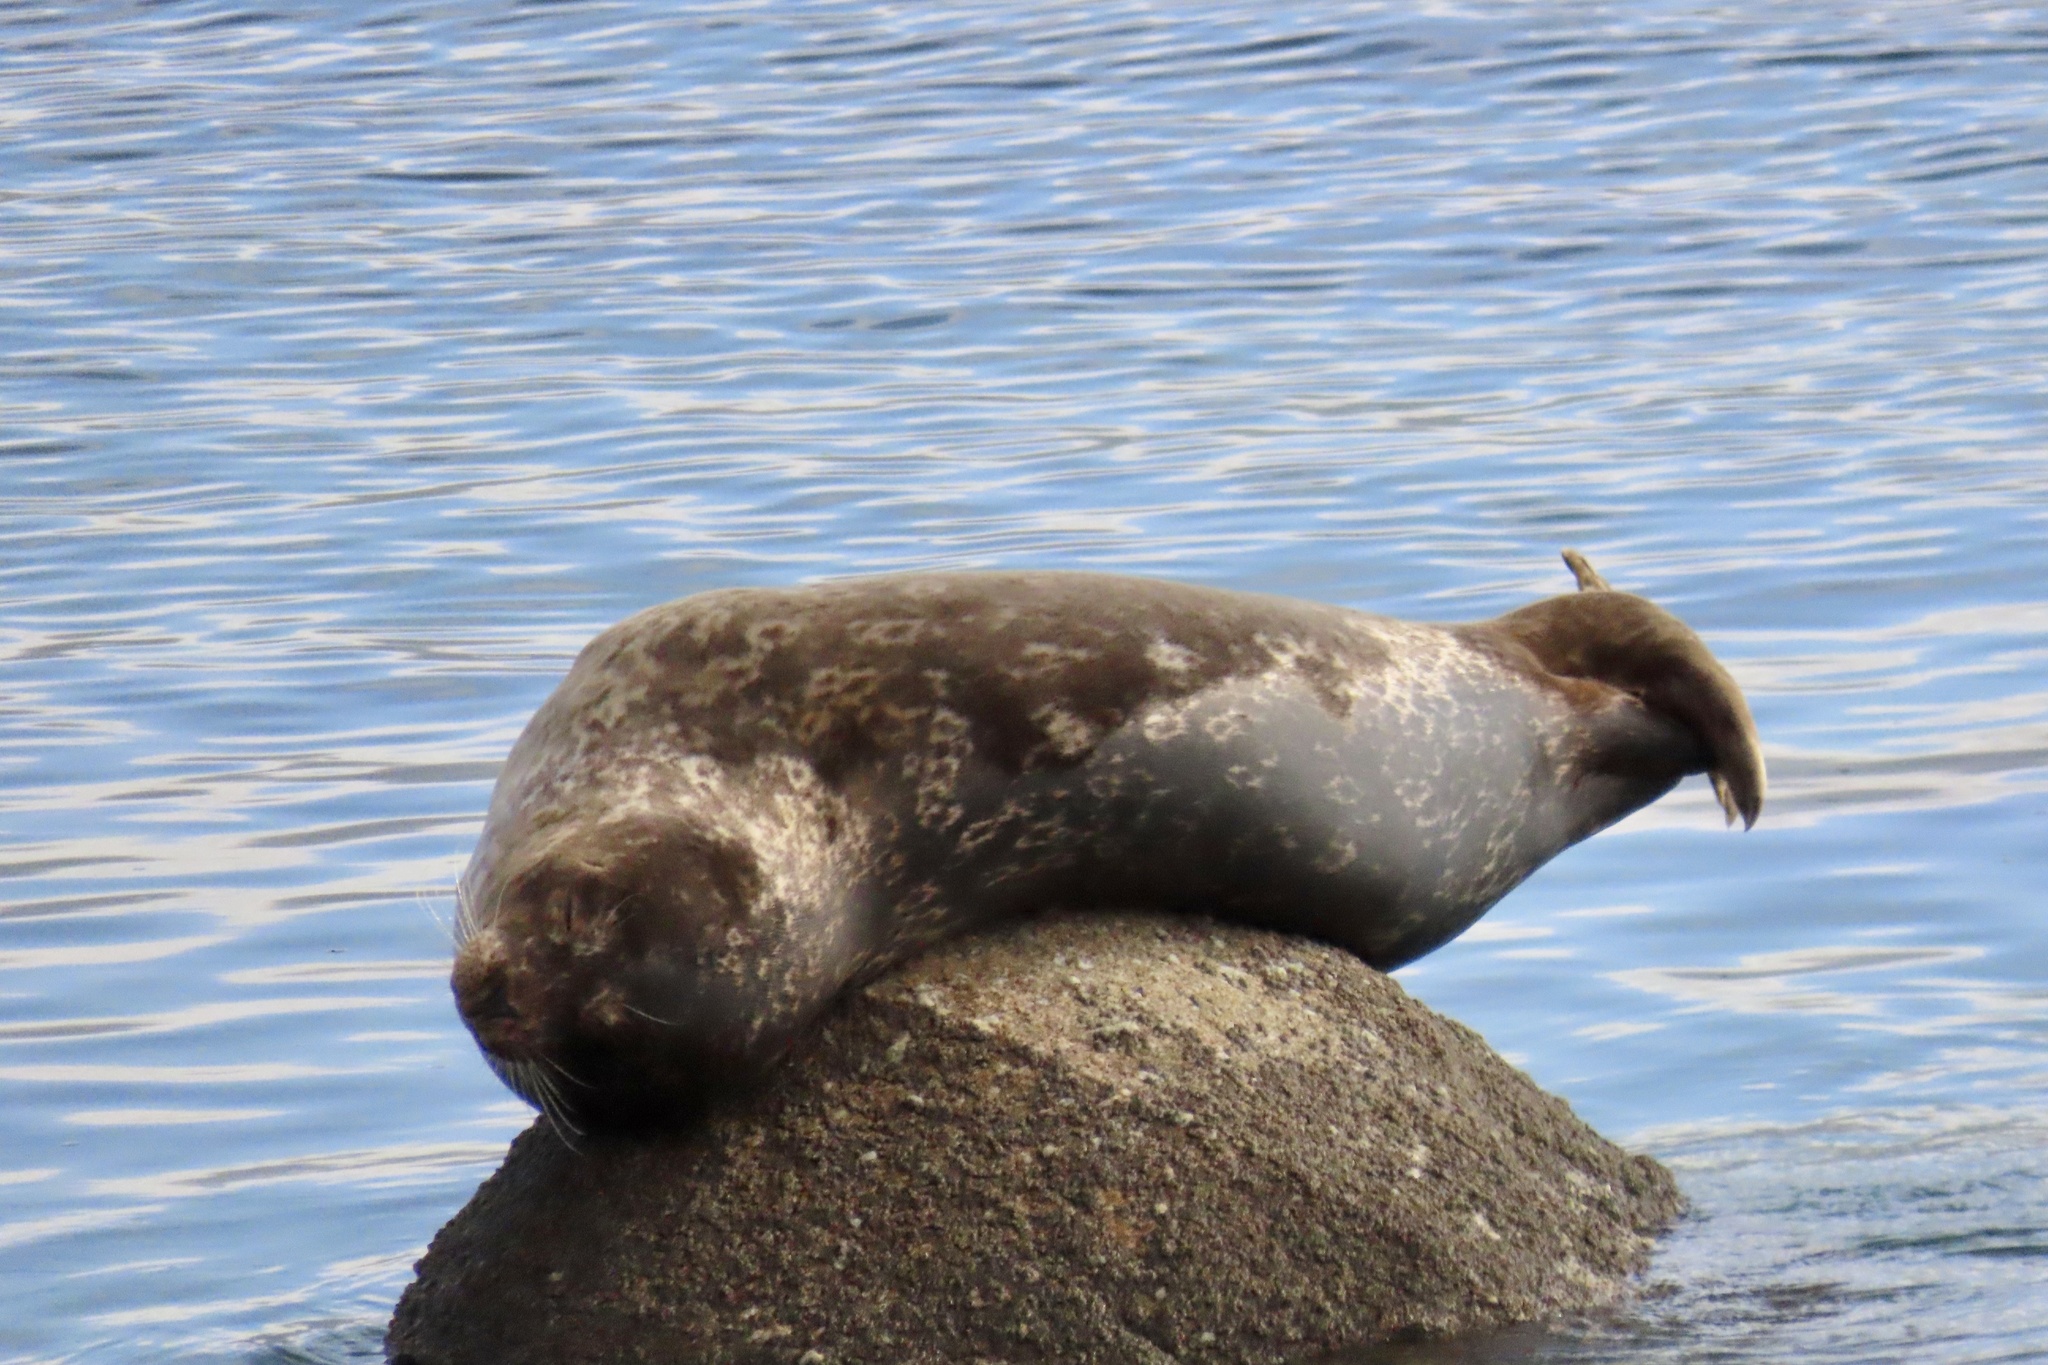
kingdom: Animalia
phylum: Chordata
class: Mammalia
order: Carnivora
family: Phocidae
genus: Phoca
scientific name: Phoca vitulina
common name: Harbor seal
